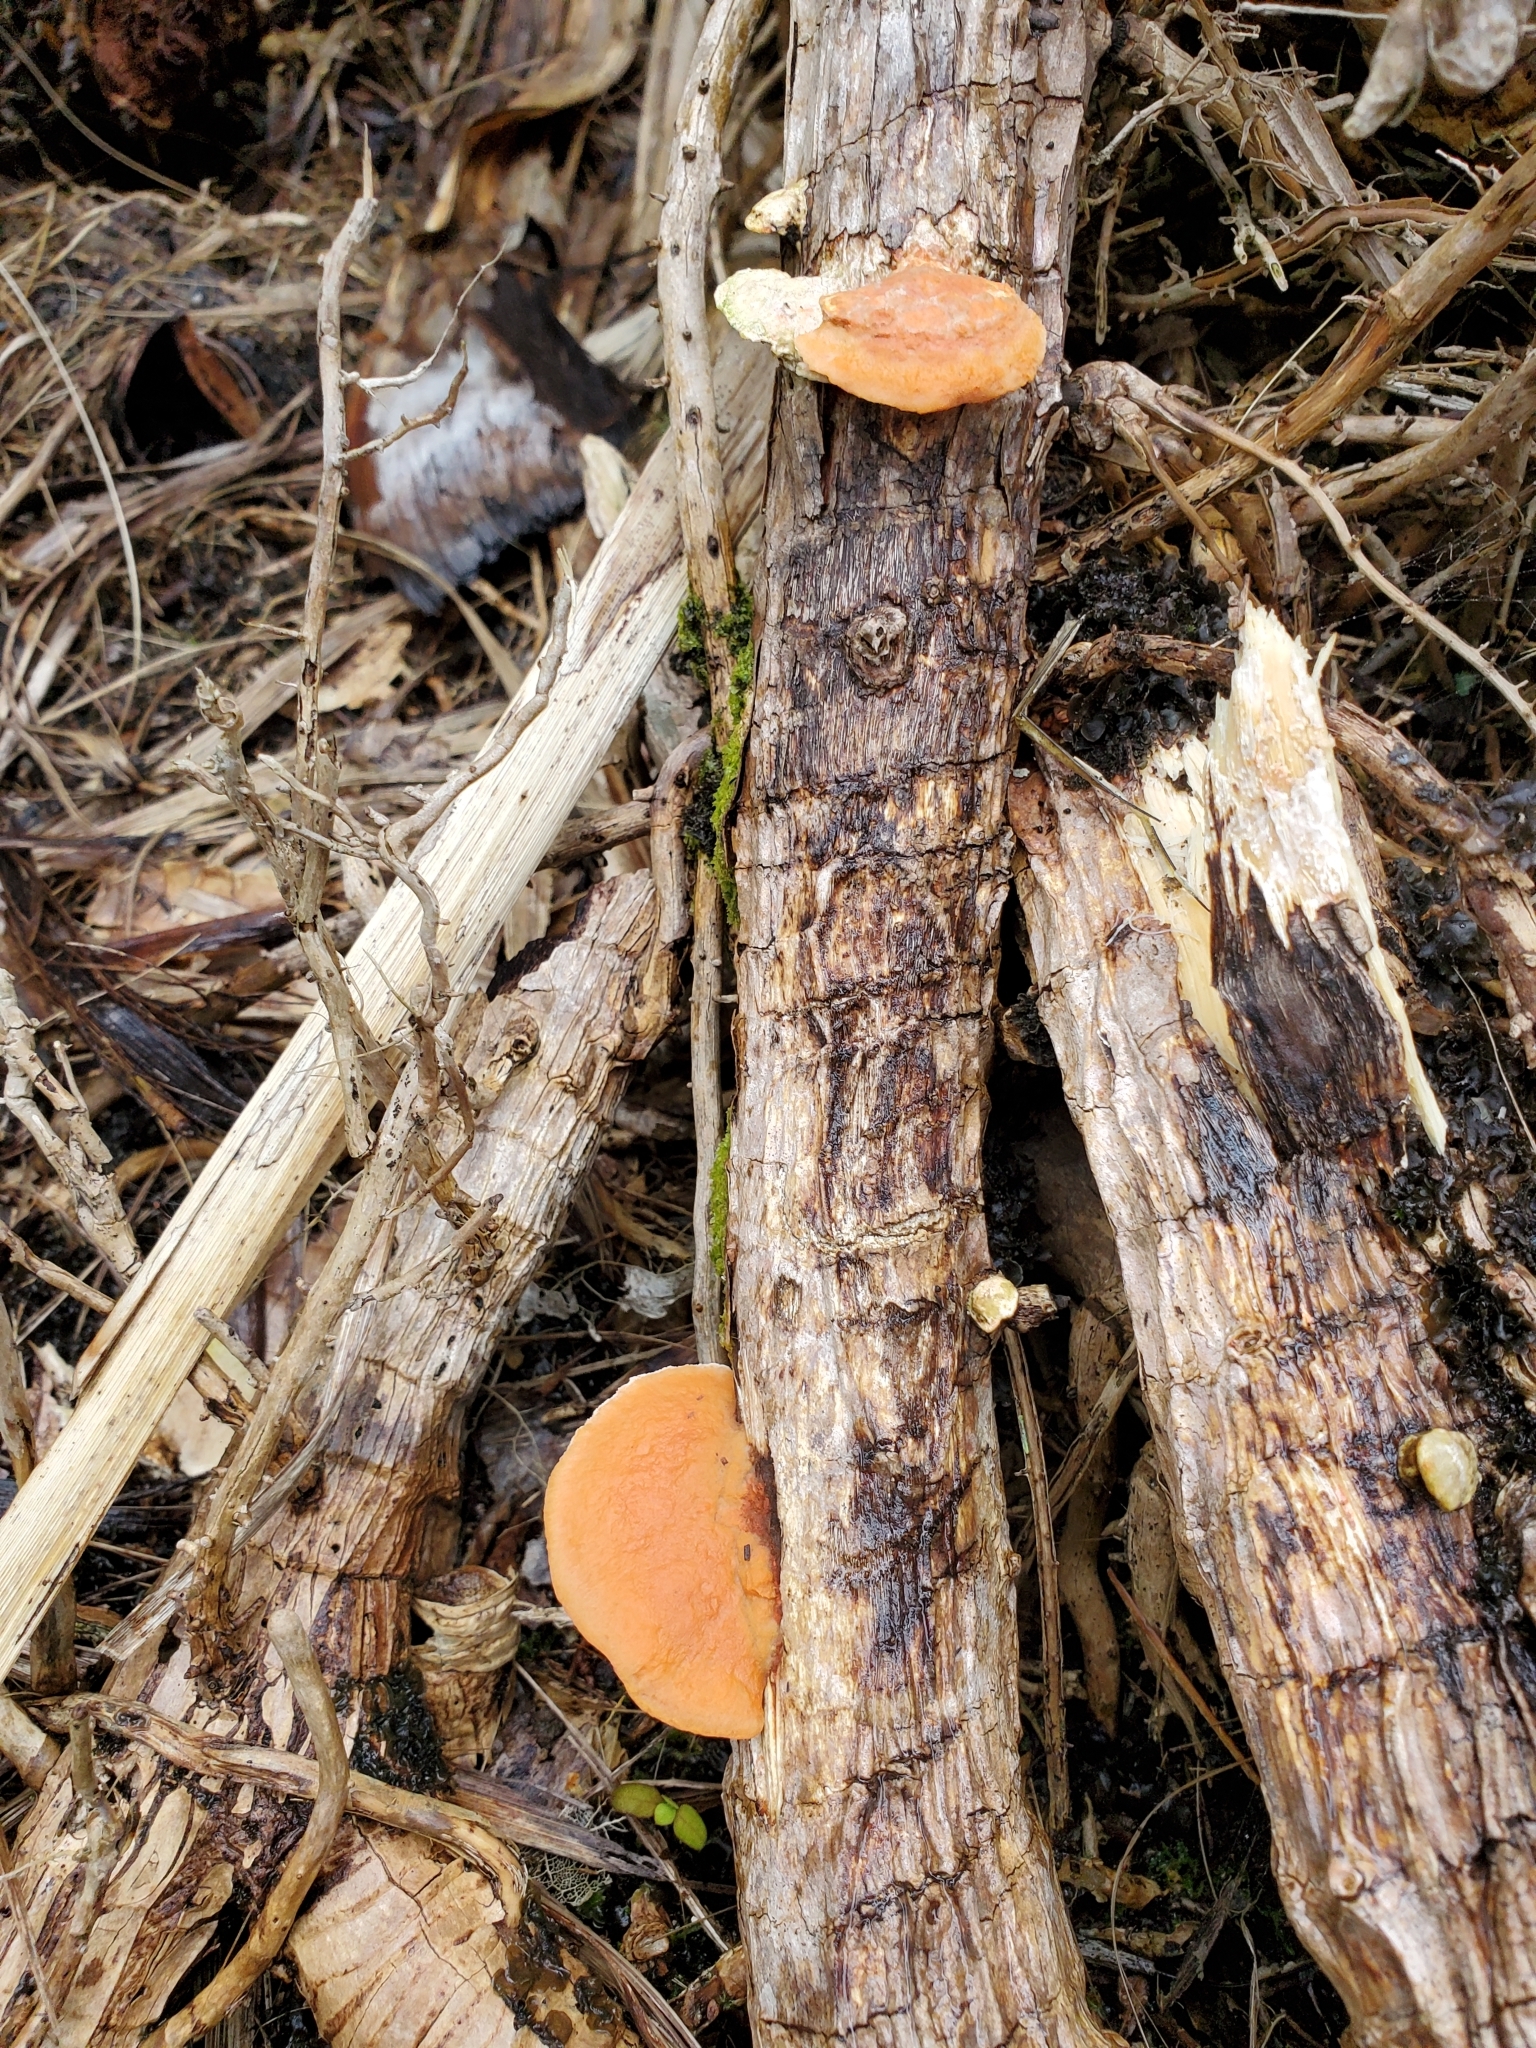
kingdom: Fungi
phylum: Basidiomycota
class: Agaricomycetes
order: Polyporales
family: Polyporaceae
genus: Trametes
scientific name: Trametes coccinea
